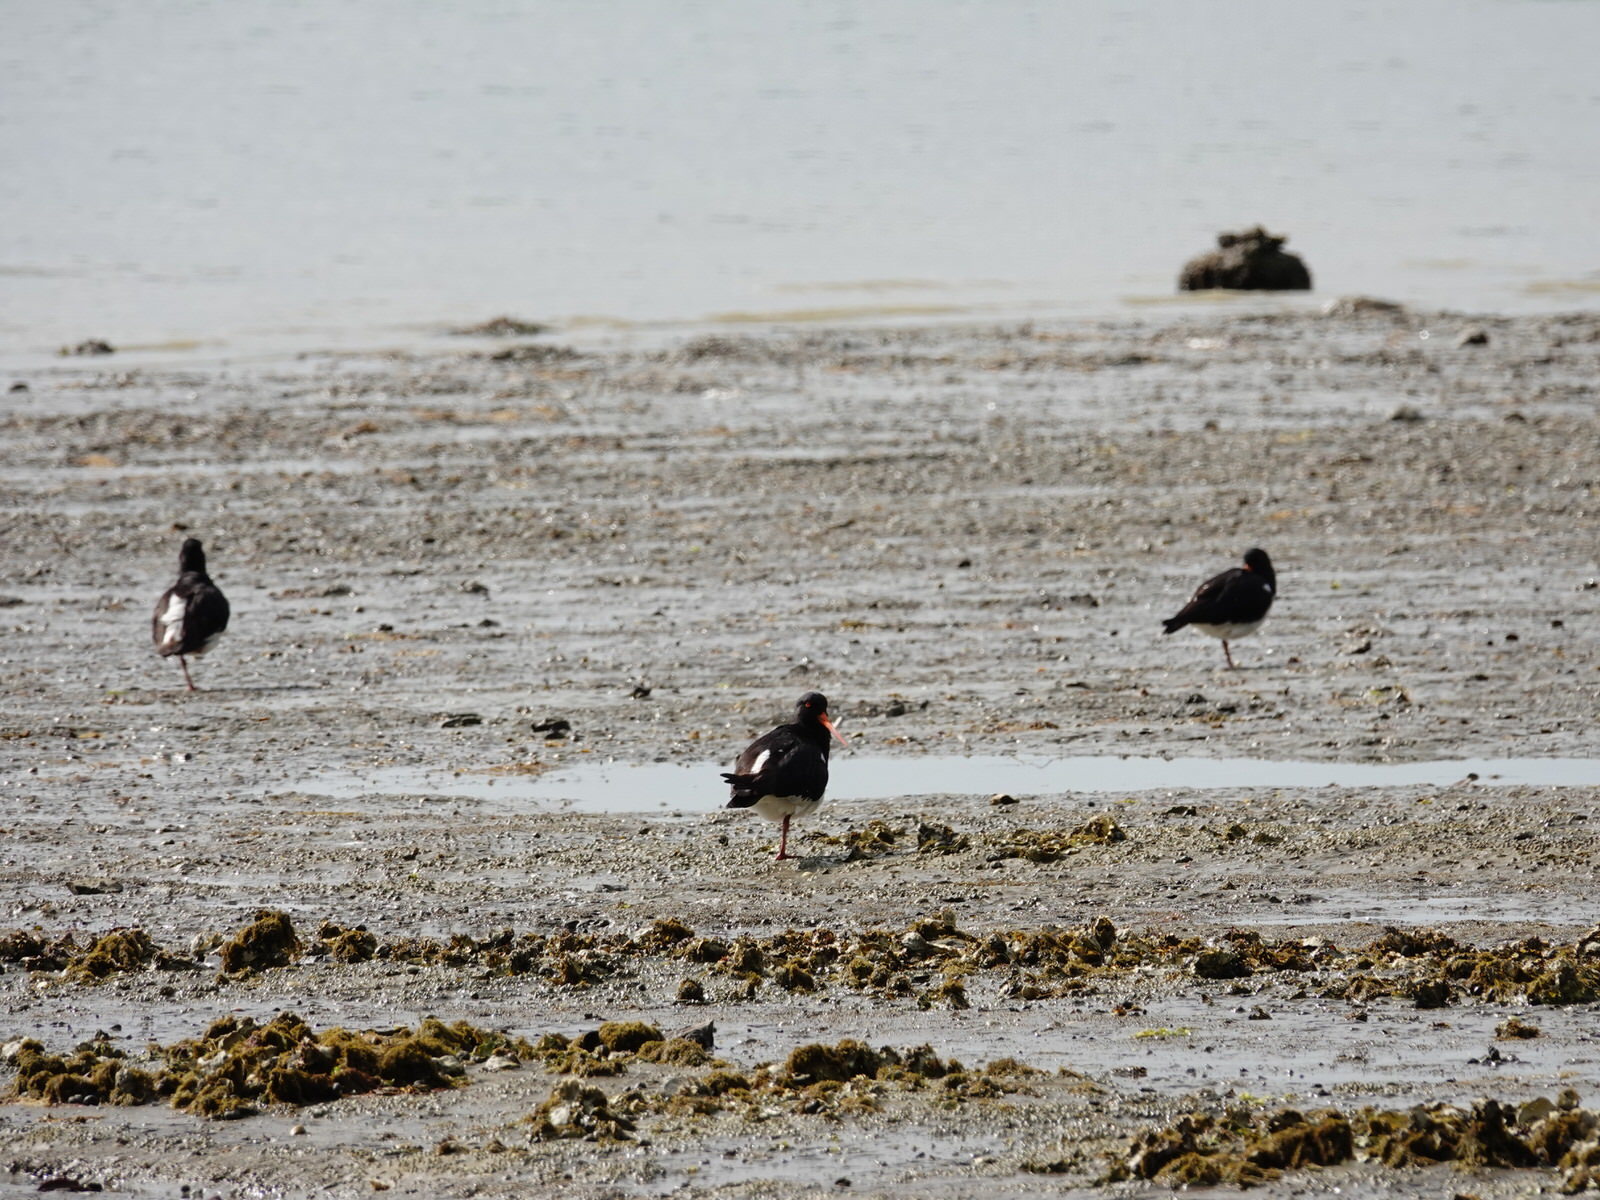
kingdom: Animalia
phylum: Chordata
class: Aves
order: Charadriiformes
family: Haematopodidae
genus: Haematopus
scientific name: Haematopus finschi
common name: South island oystercatcher
